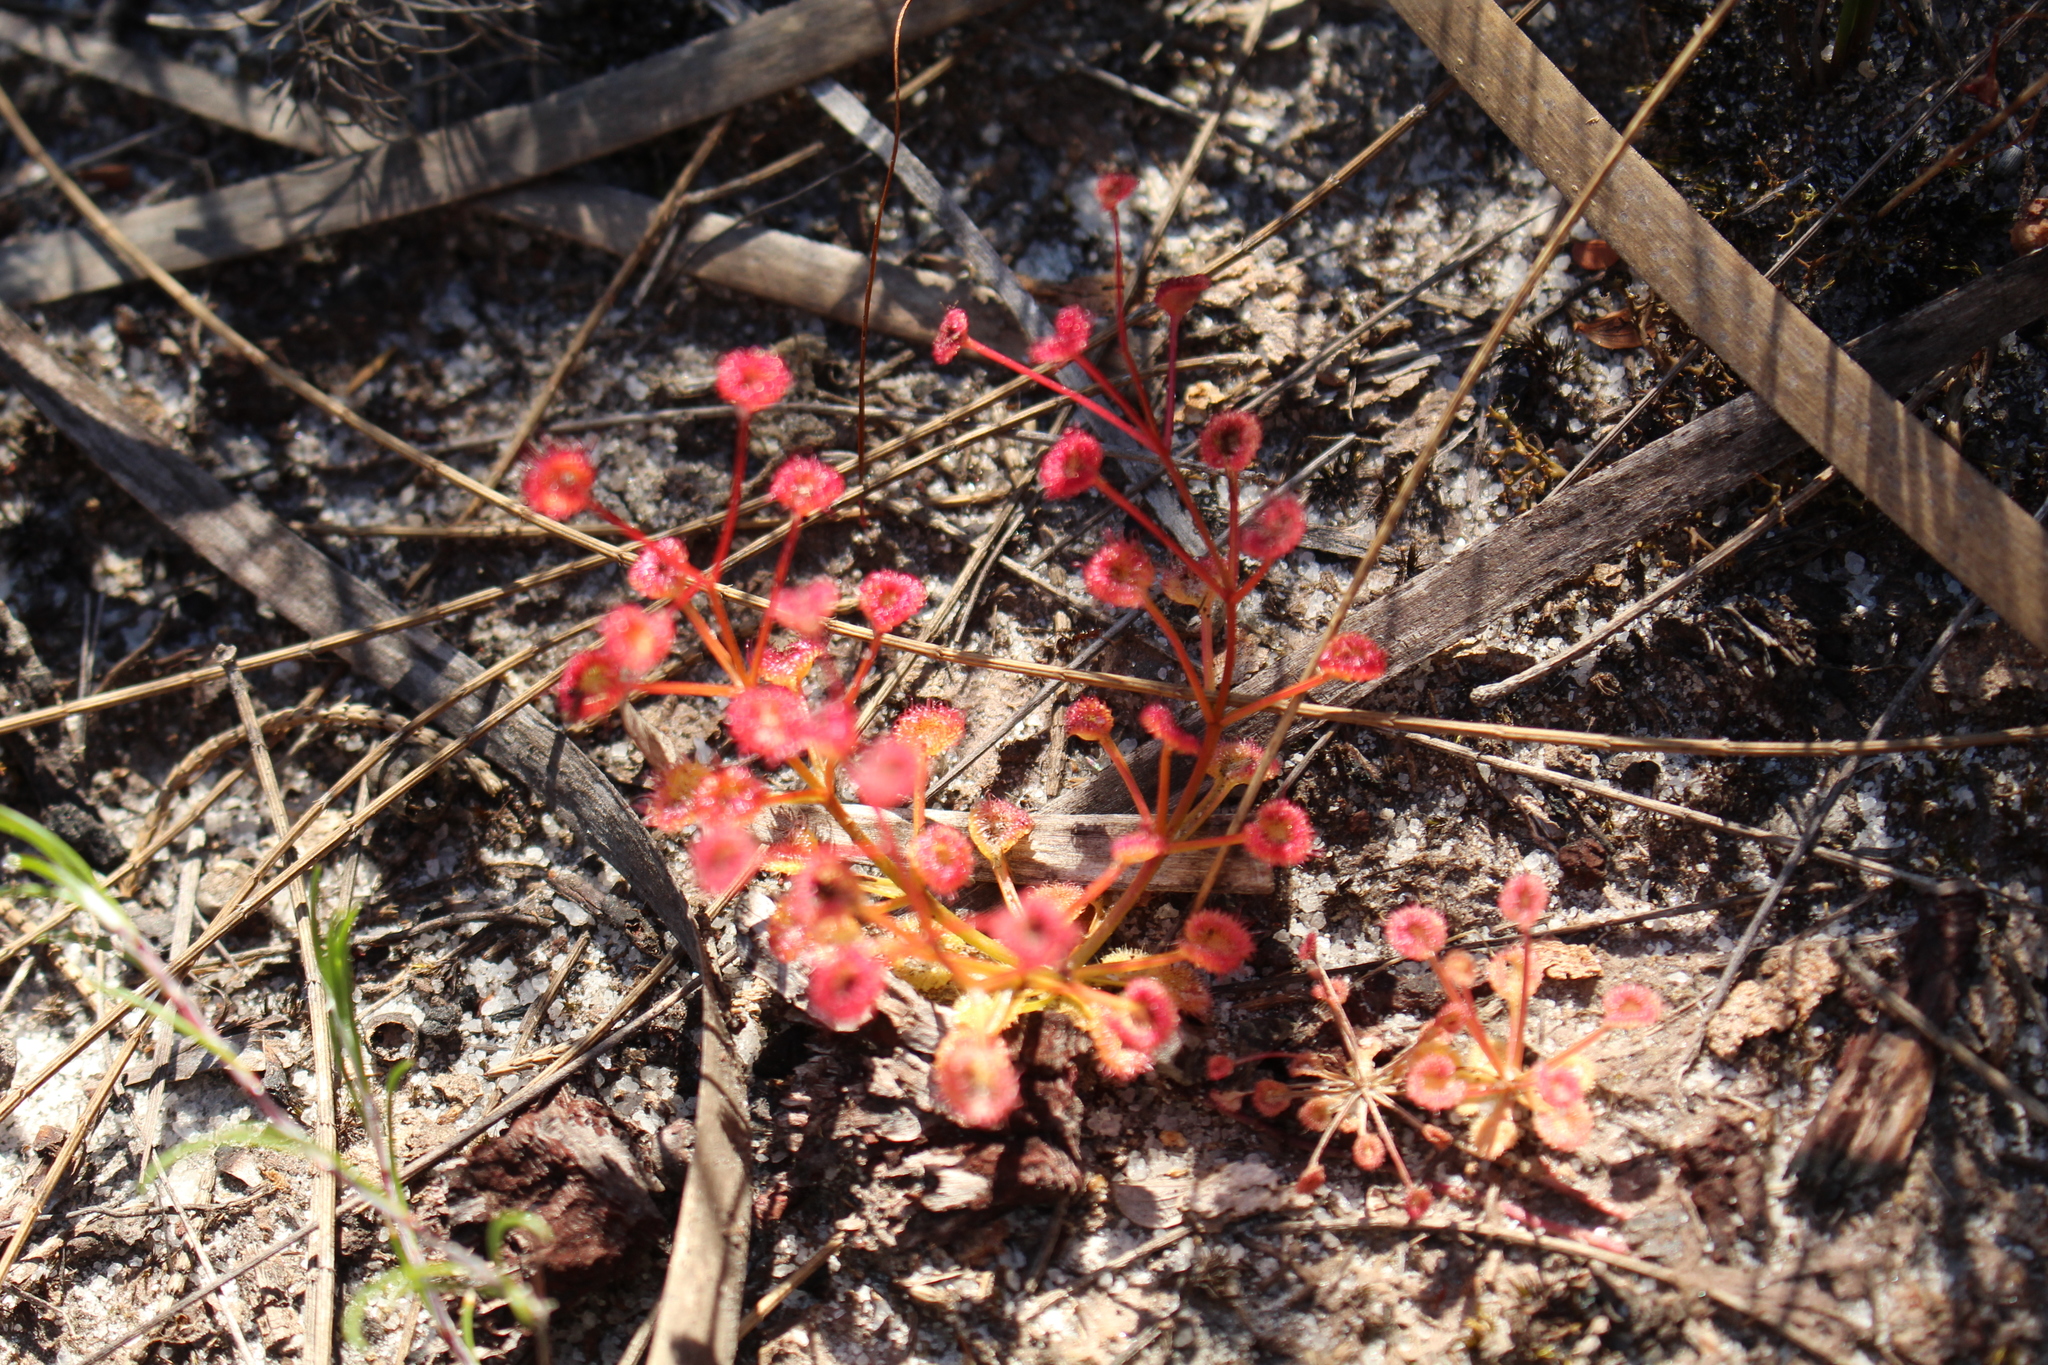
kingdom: Plantae
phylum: Tracheophyta
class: Magnoliopsida
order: Caryophyllales
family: Droseraceae
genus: Drosera
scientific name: Drosera stolonifera
